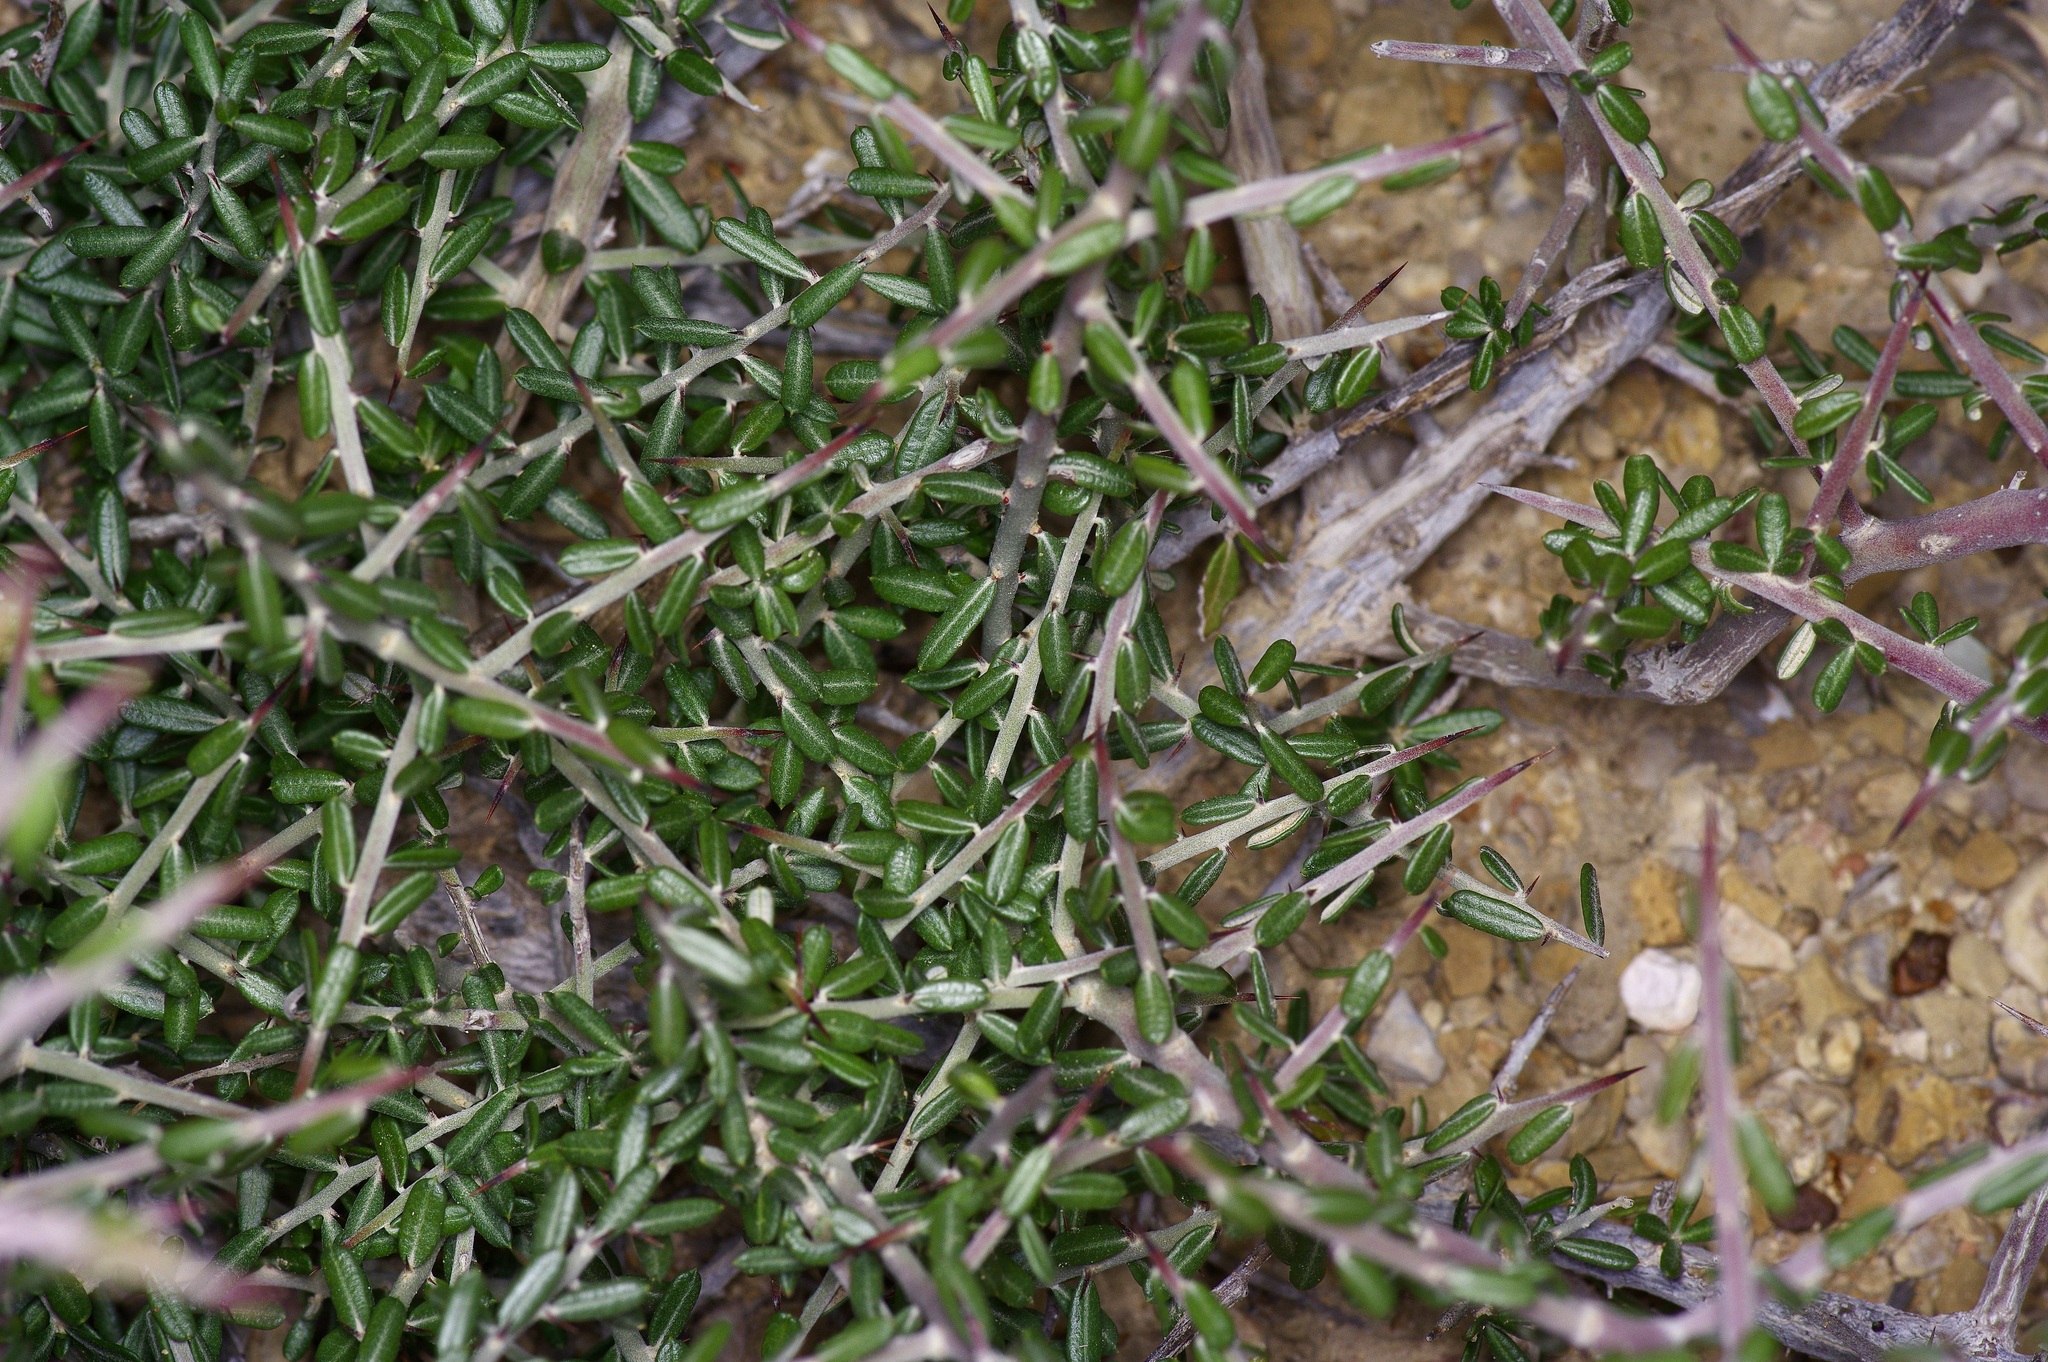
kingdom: Plantae
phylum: Tracheophyta
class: Magnoliopsida
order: Sapindales
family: Simaroubaceae
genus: Castela
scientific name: Castela erecta
